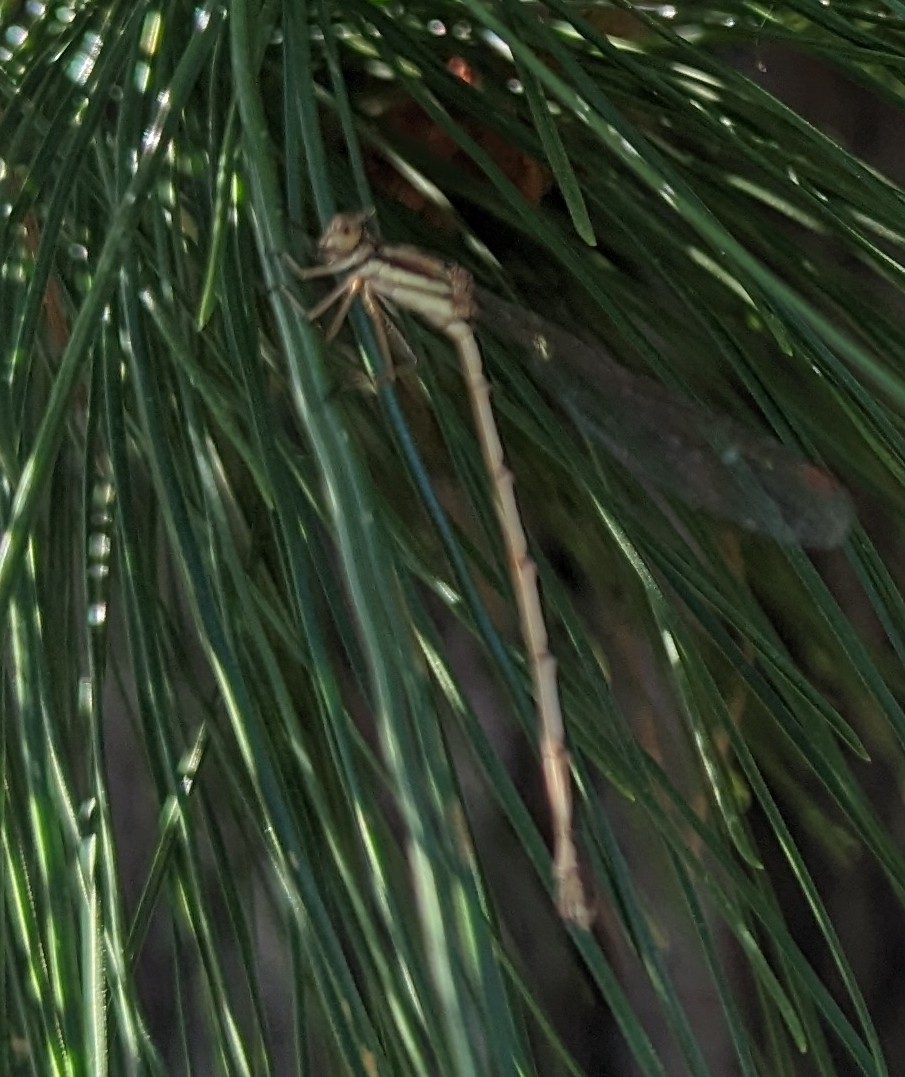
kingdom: Animalia
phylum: Arthropoda
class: Insecta
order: Odonata
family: Lestidae
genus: Austrolestes
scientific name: Austrolestes analis
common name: Slender ringtail
